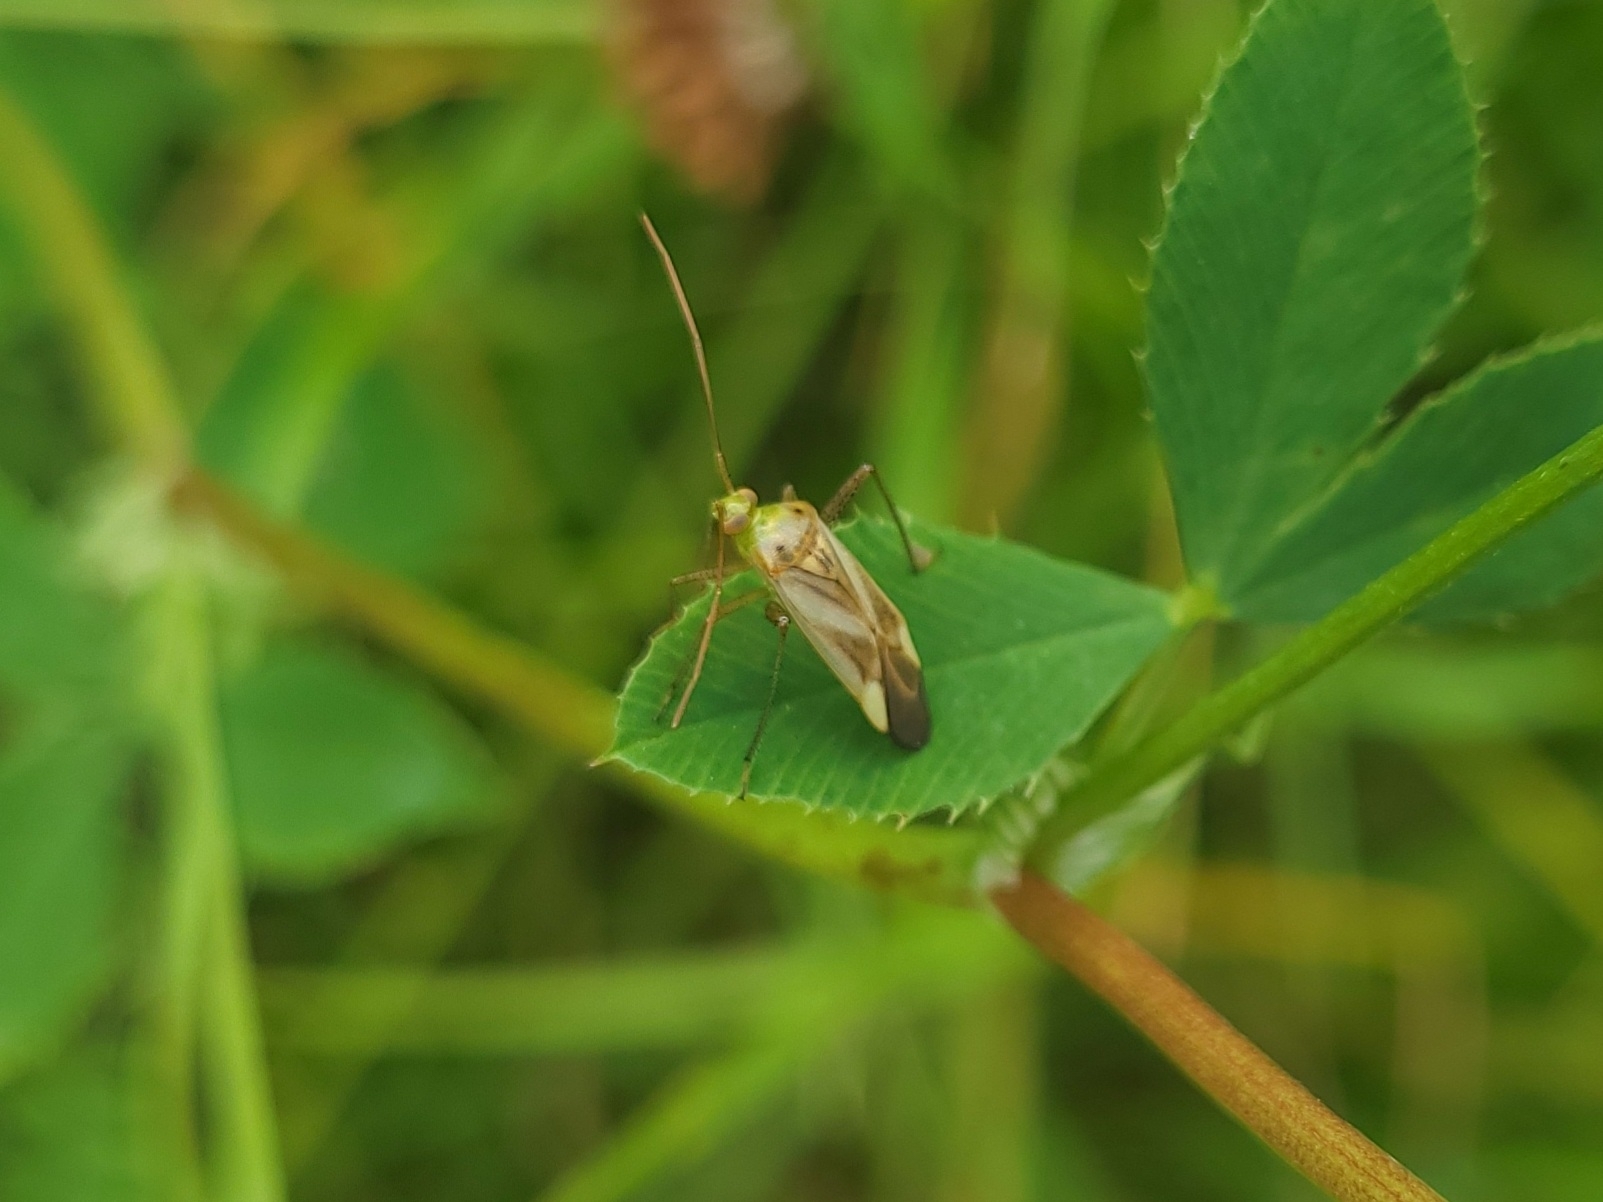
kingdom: Animalia
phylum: Arthropoda
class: Insecta
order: Hemiptera
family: Miridae
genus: Adelphocoris
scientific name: Adelphocoris lineolatus
